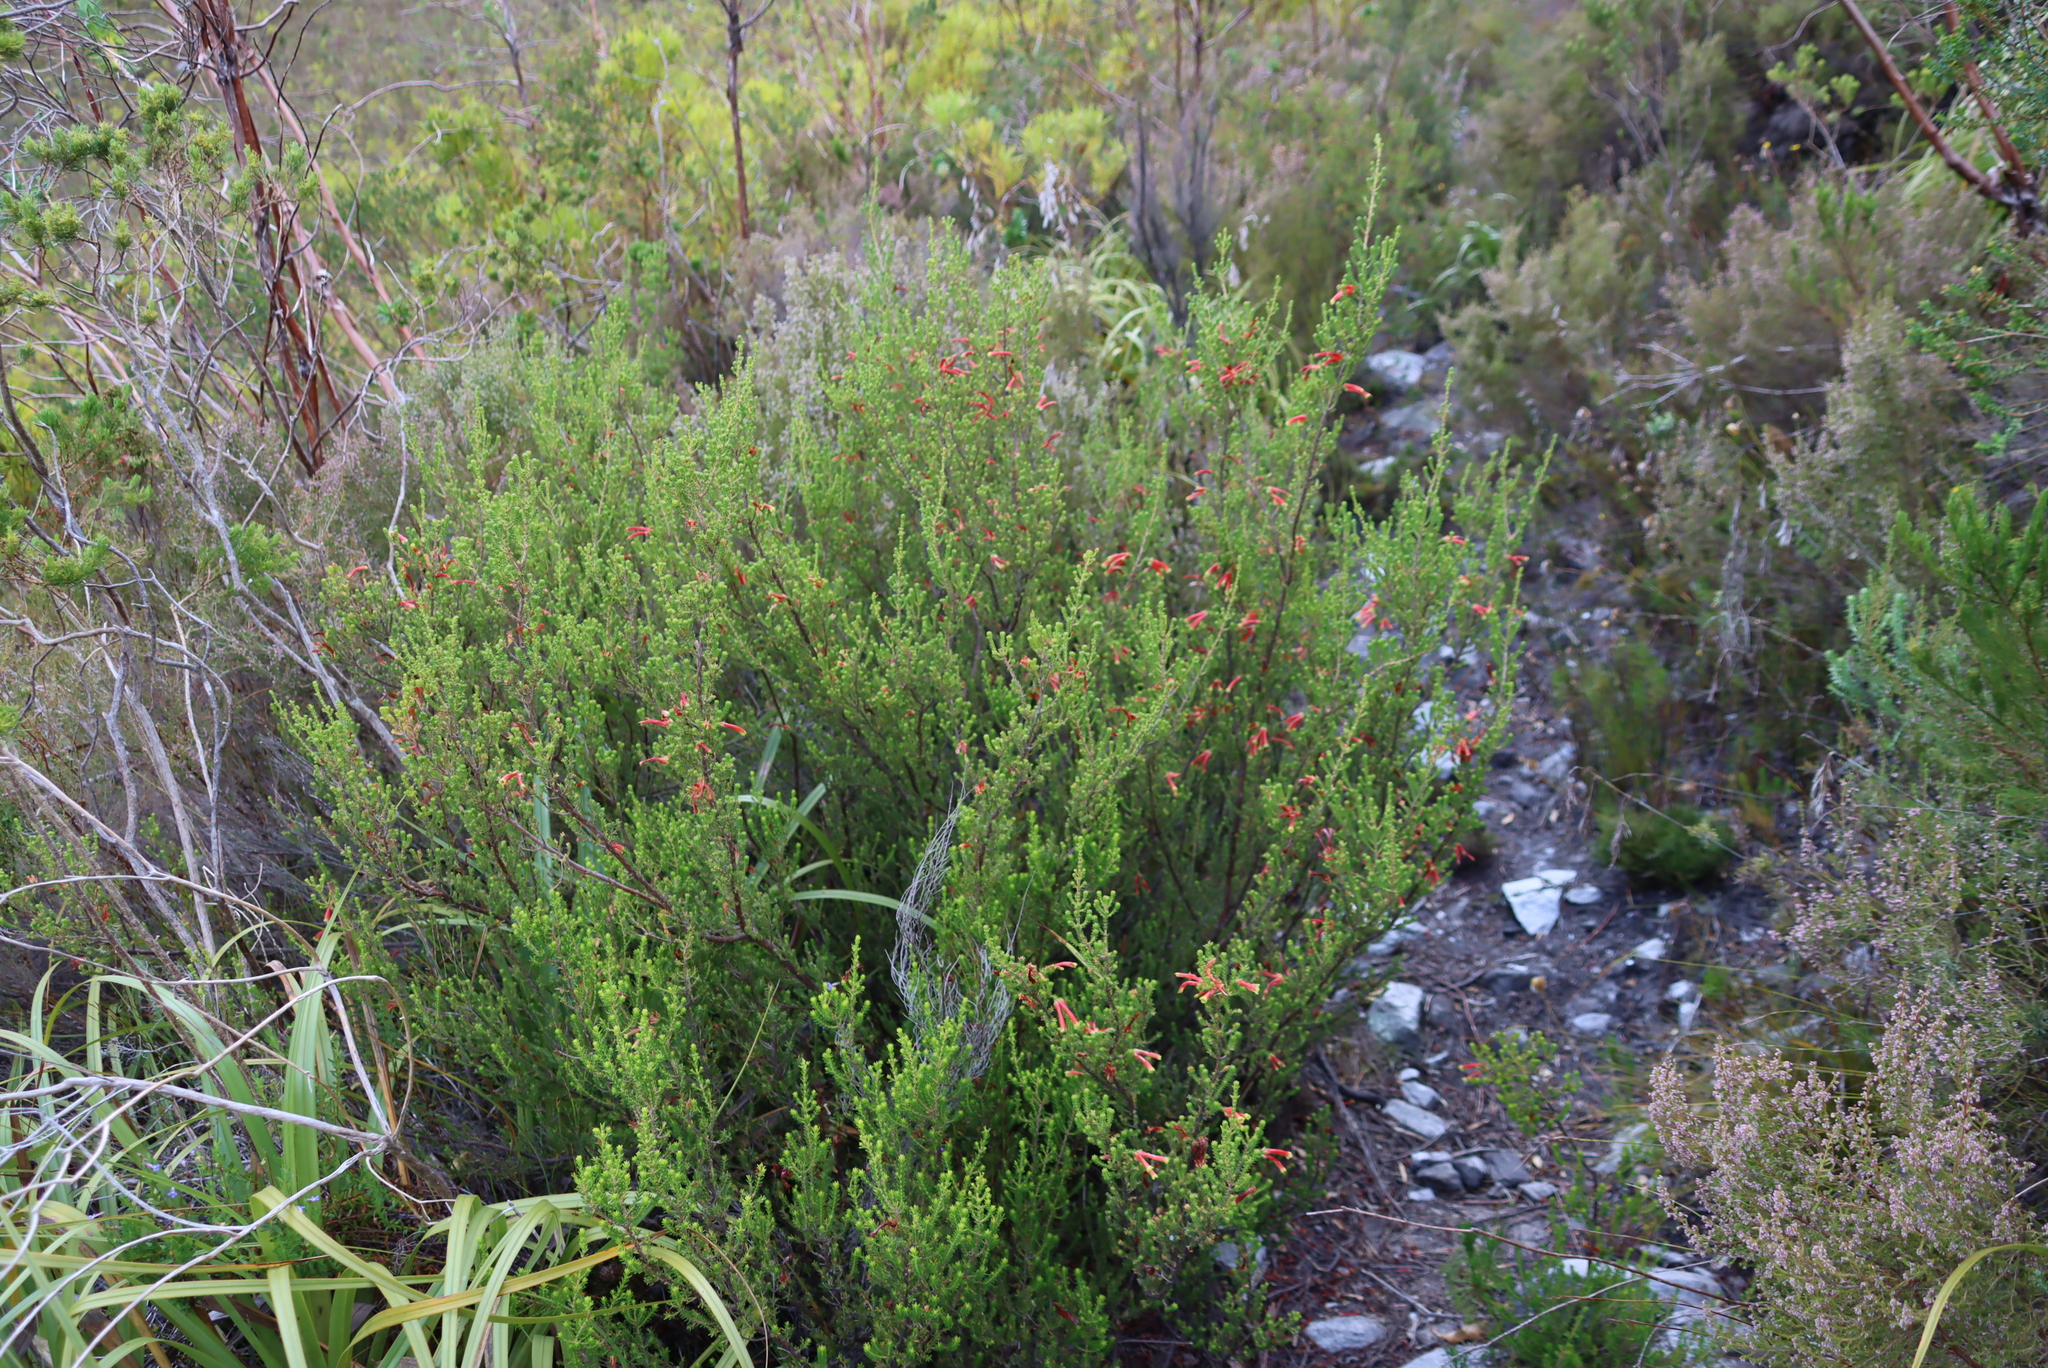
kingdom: Plantae
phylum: Tracheophyta
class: Magnoliopsida
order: Ericales
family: Ericaceae
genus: Erica
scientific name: Erica discolor
